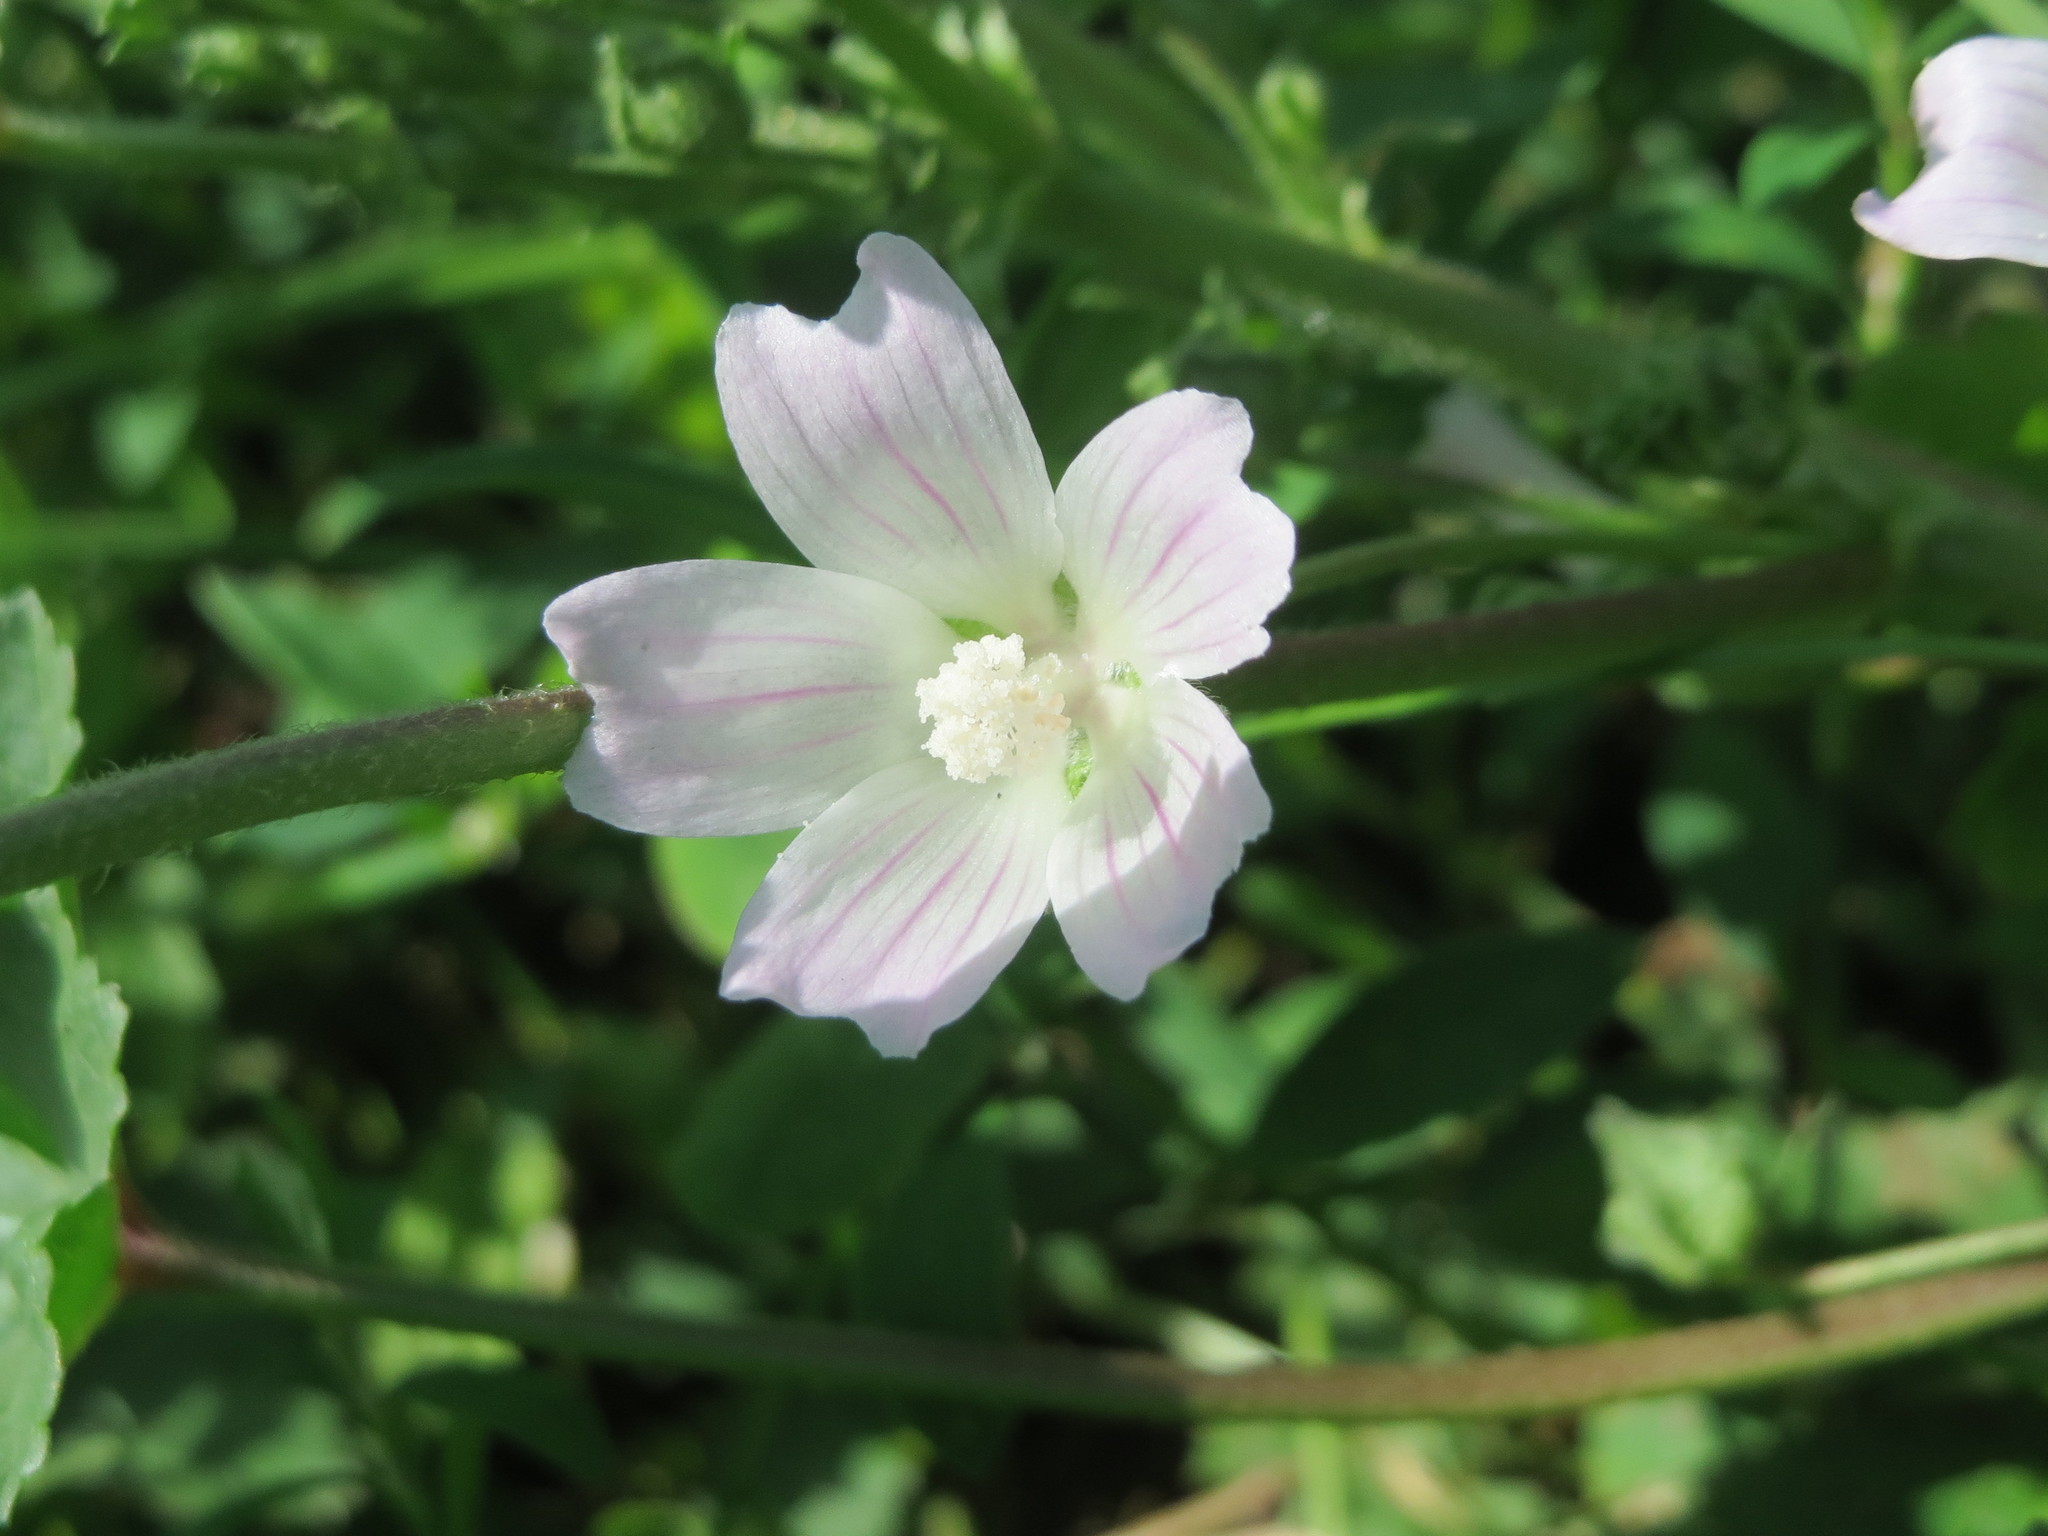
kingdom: Plantae
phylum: Tracheophyta
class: Magnoliopsida
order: Malvales
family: Malvaceae
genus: Malva
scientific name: Malva neglecta
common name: Common mallow
